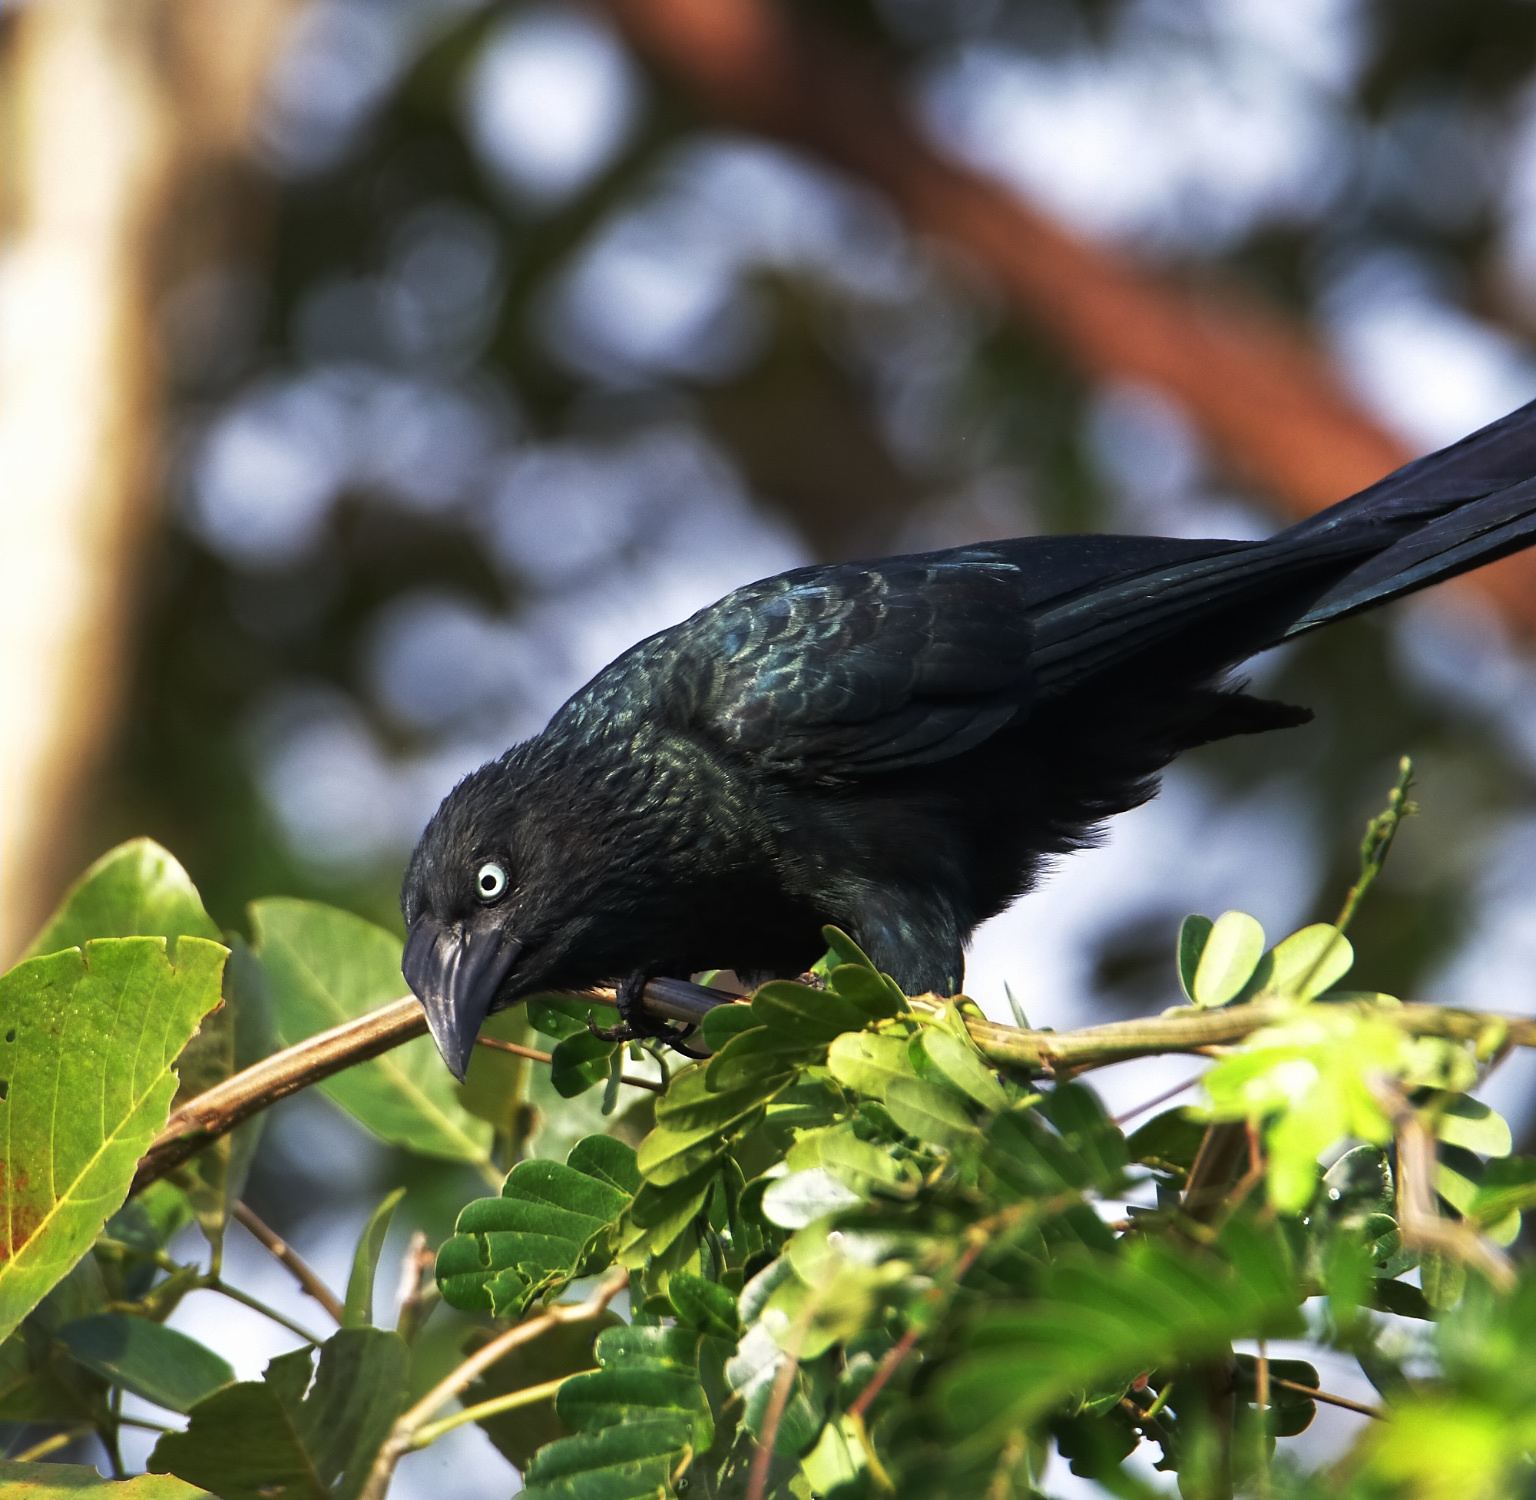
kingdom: Animalia
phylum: Chordata
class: Aves
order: Cuculiformes
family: Cuculidae
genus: Crotophaga
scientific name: Crotophaga major
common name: Greater ani
